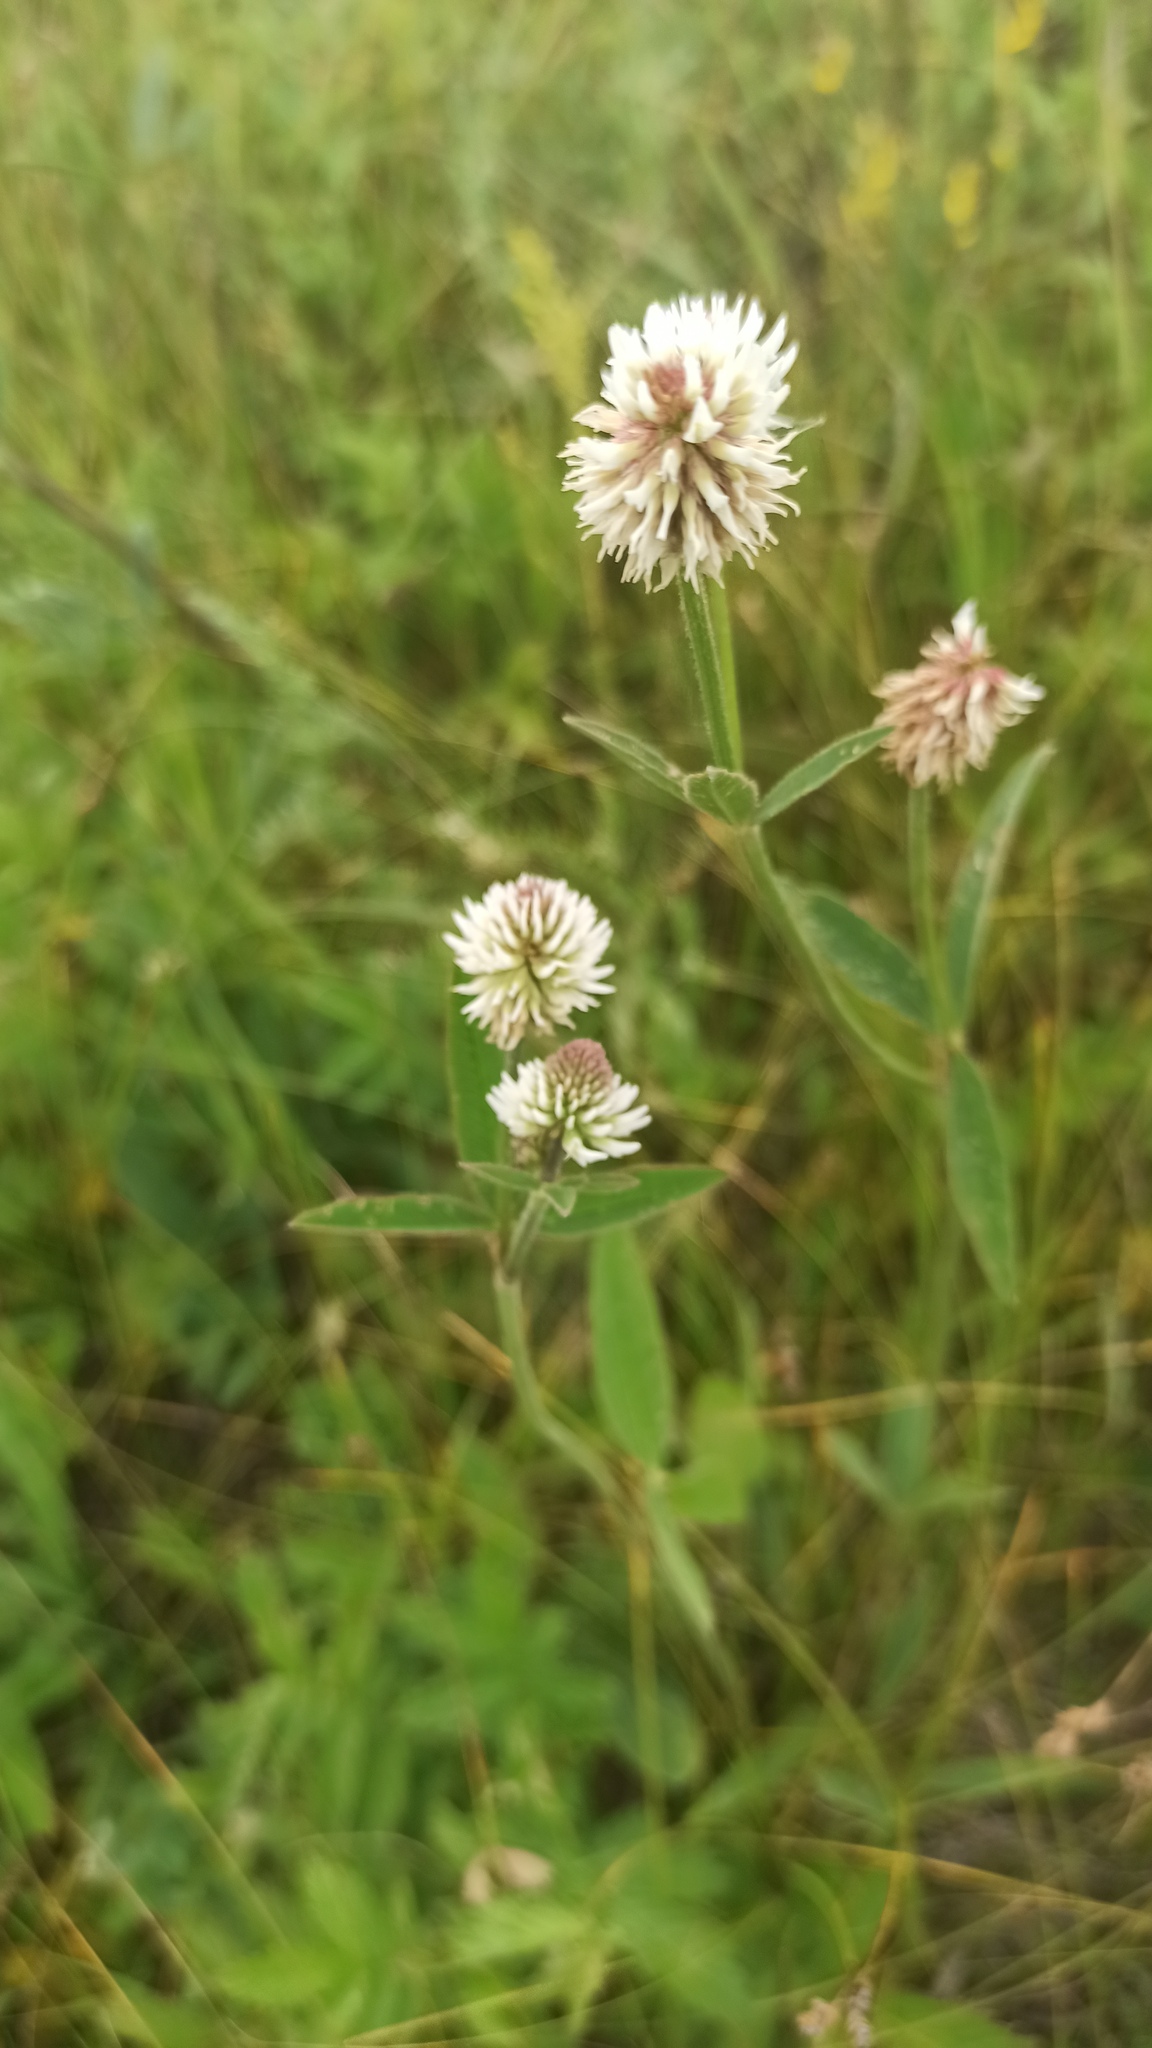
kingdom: Plantae
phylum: Tracheophyta
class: Magnoliopsida
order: Fabales
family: Fabaceae
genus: Trifolium
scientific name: Trifolium montanum
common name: Mountain clover
